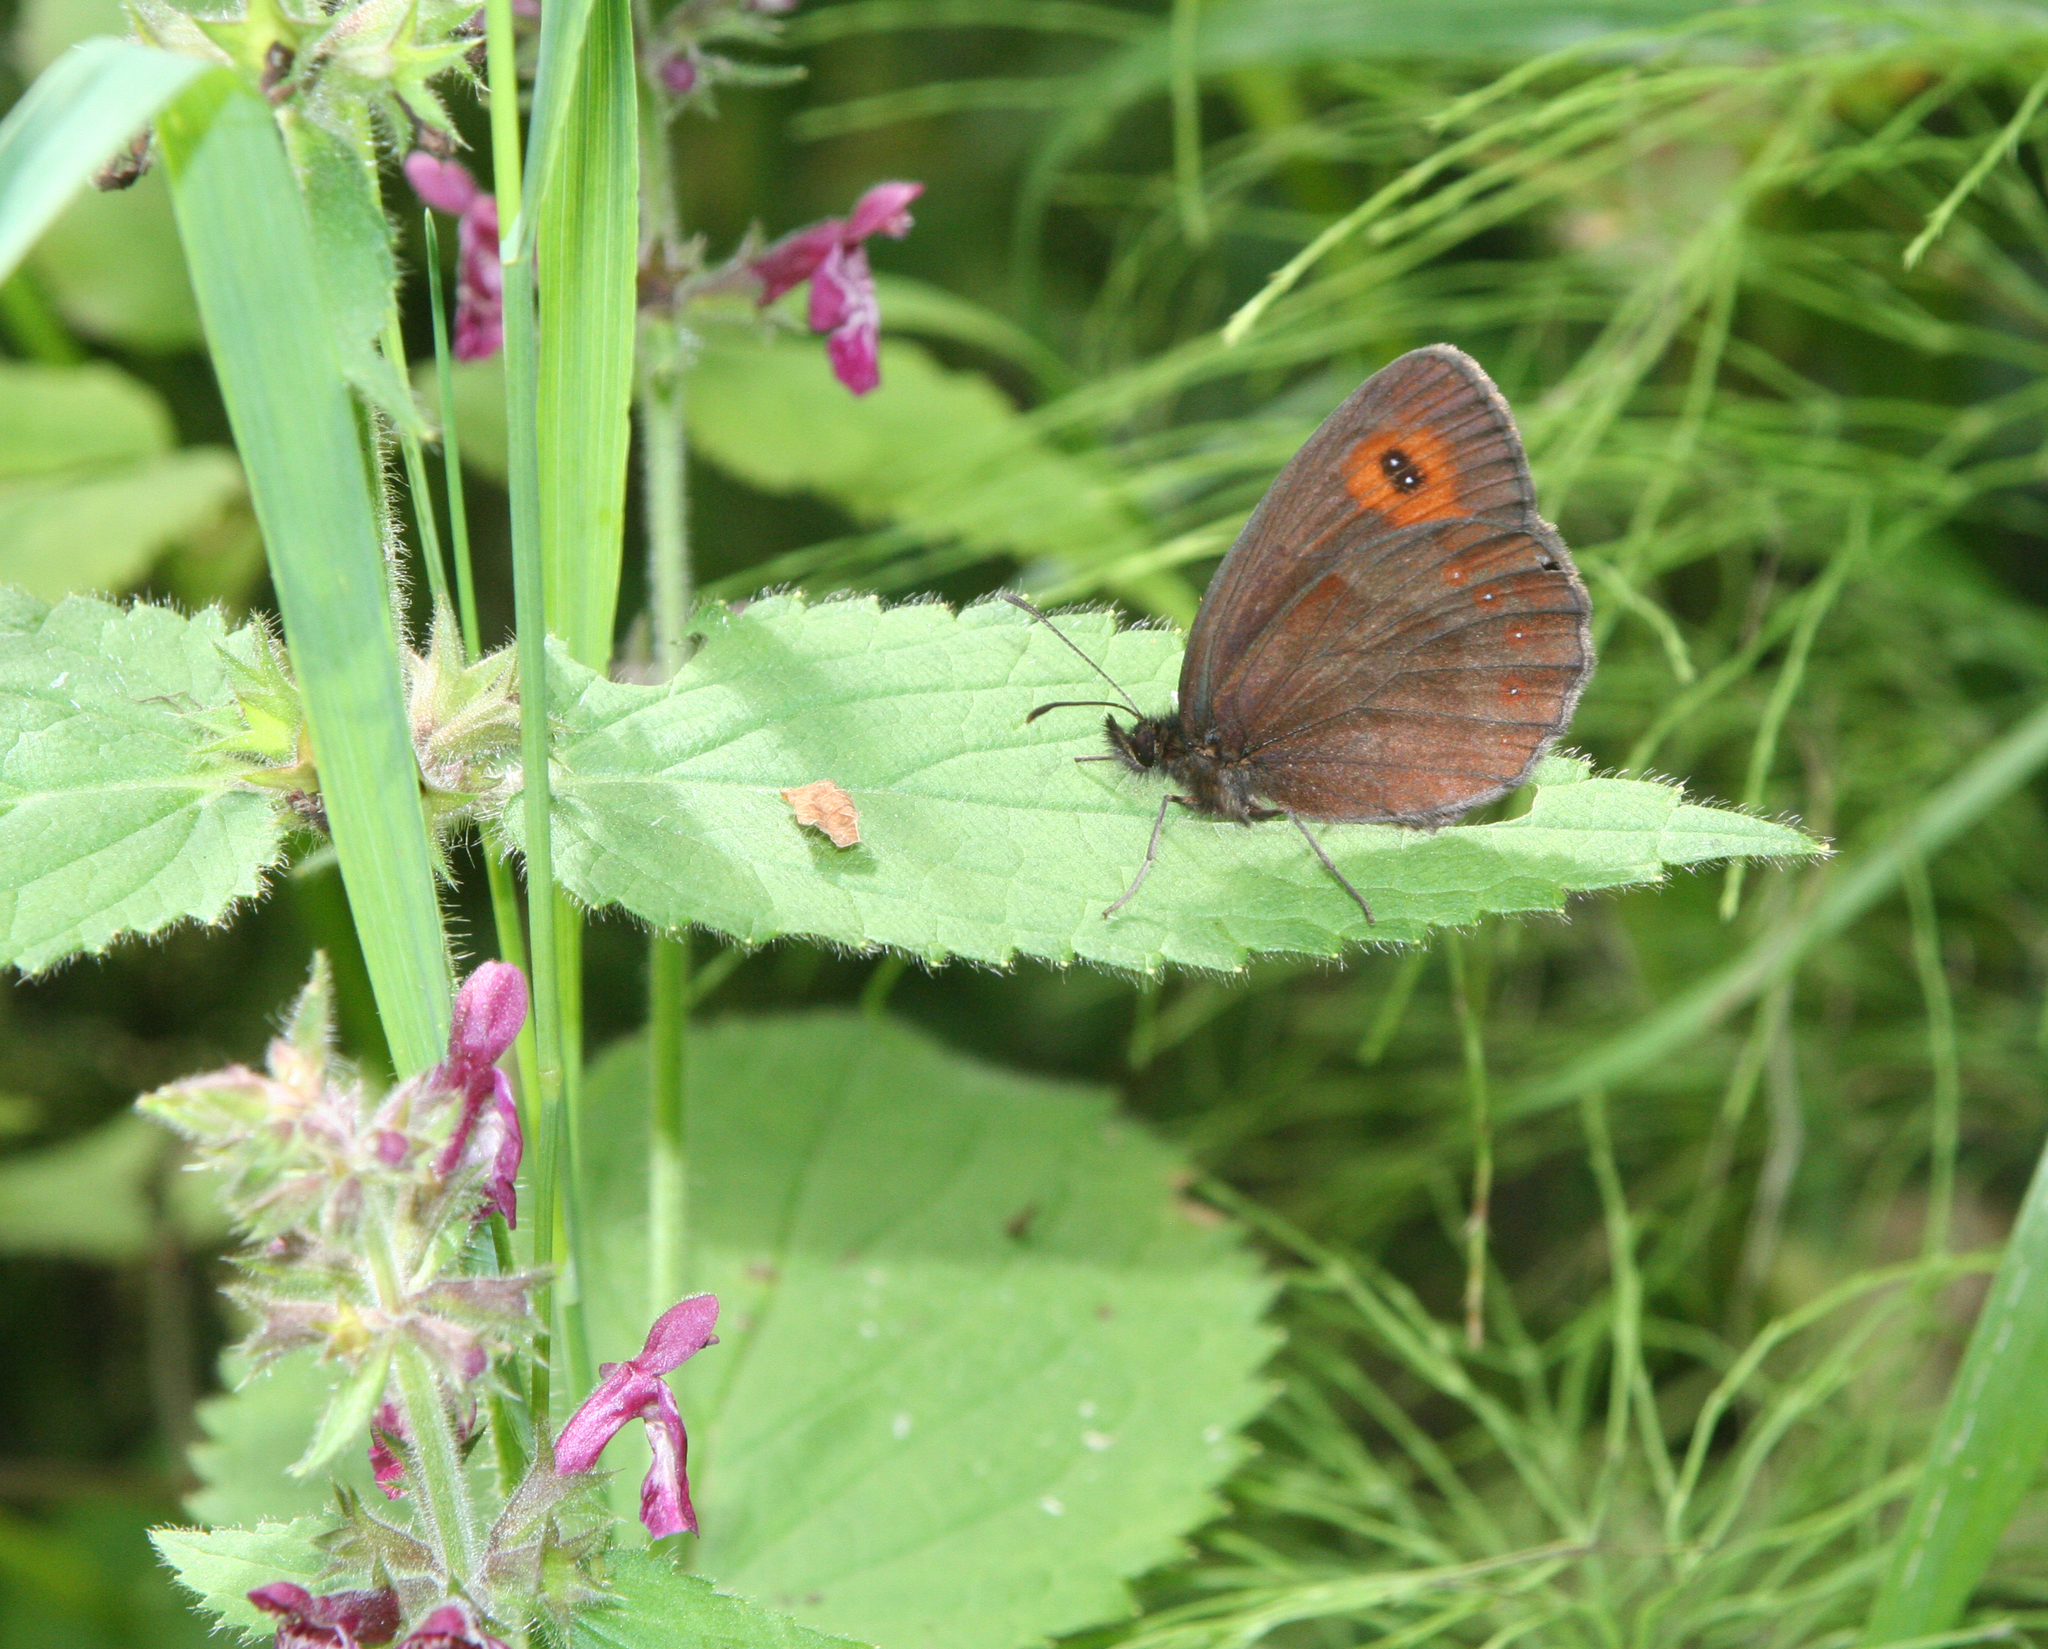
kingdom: Plantae
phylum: Tracheophyta
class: Magnoliopsida
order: Lamiales
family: Lamiaceae
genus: Stachys
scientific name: Stachys sylvatica
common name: Hedge woundwort
